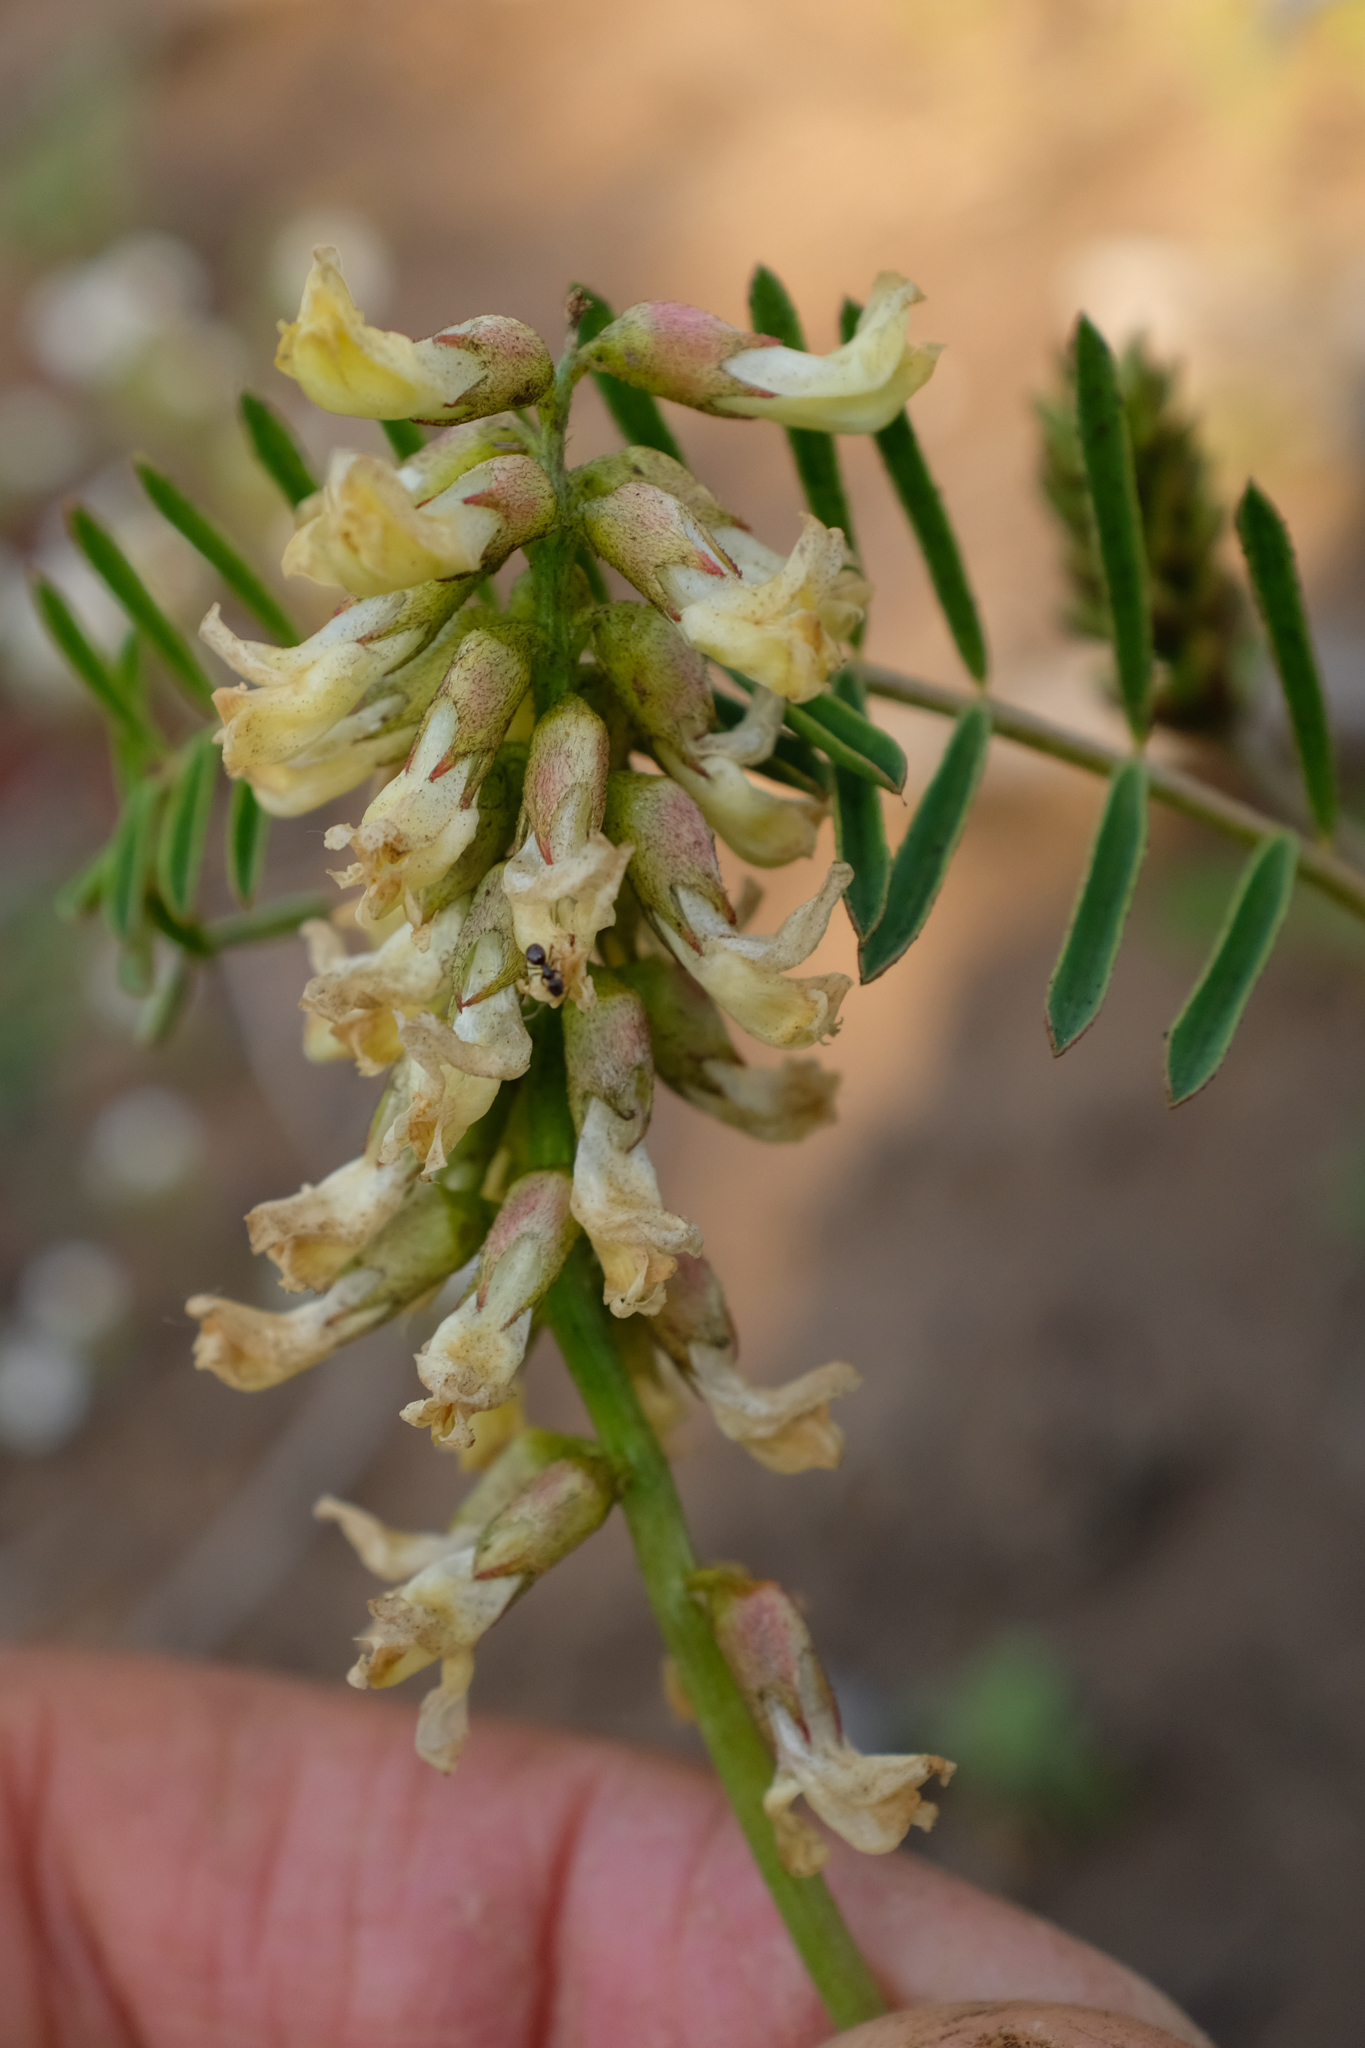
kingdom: Plantae
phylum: Tracheophyta
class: Magnoliopsida
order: Fabales
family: Fabaceae
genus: Astragalus
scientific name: Astragalus pomonensis
